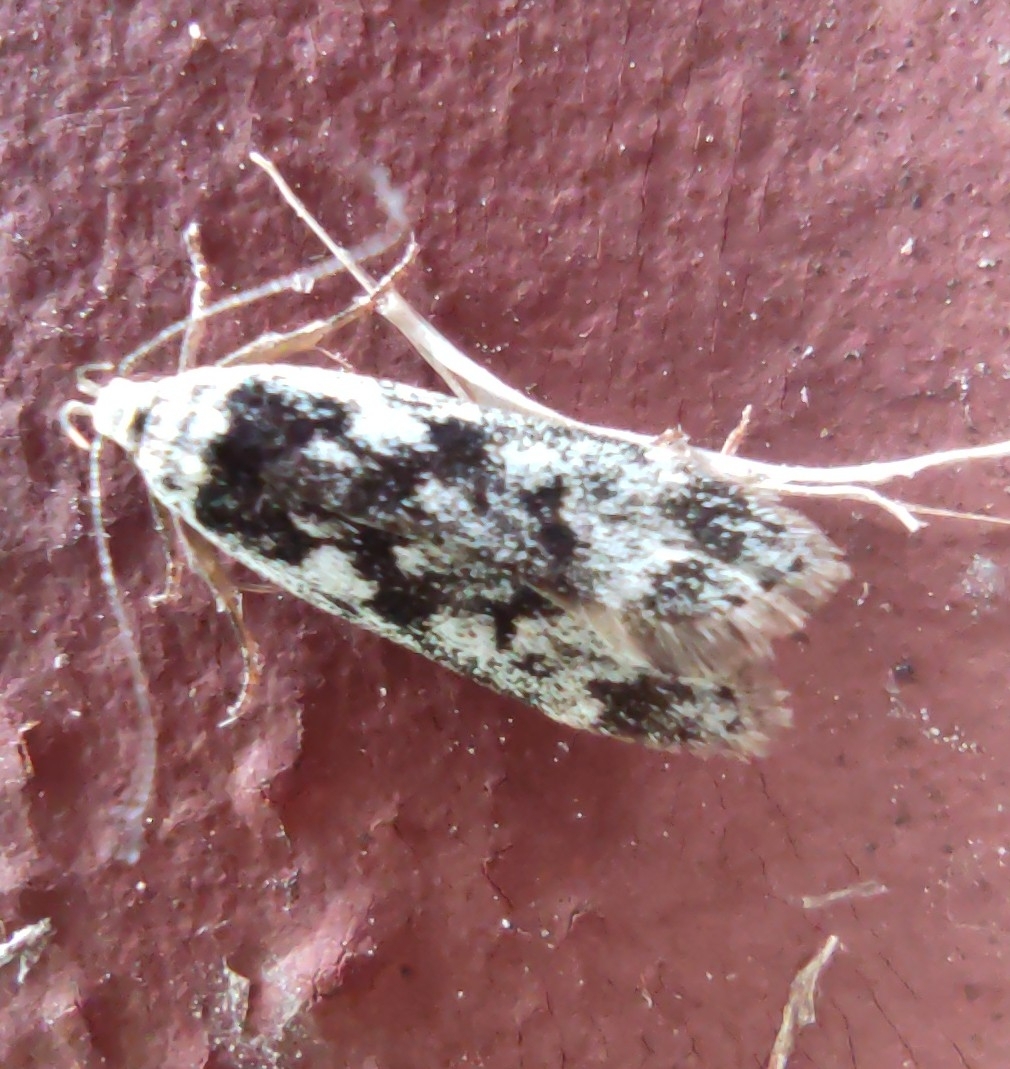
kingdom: Animalia
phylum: Arthropoda
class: Insecta
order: Lepidoptera
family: Gelechiidae
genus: Anacampsis
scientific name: Anacampsis blattariella
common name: Birch sober
